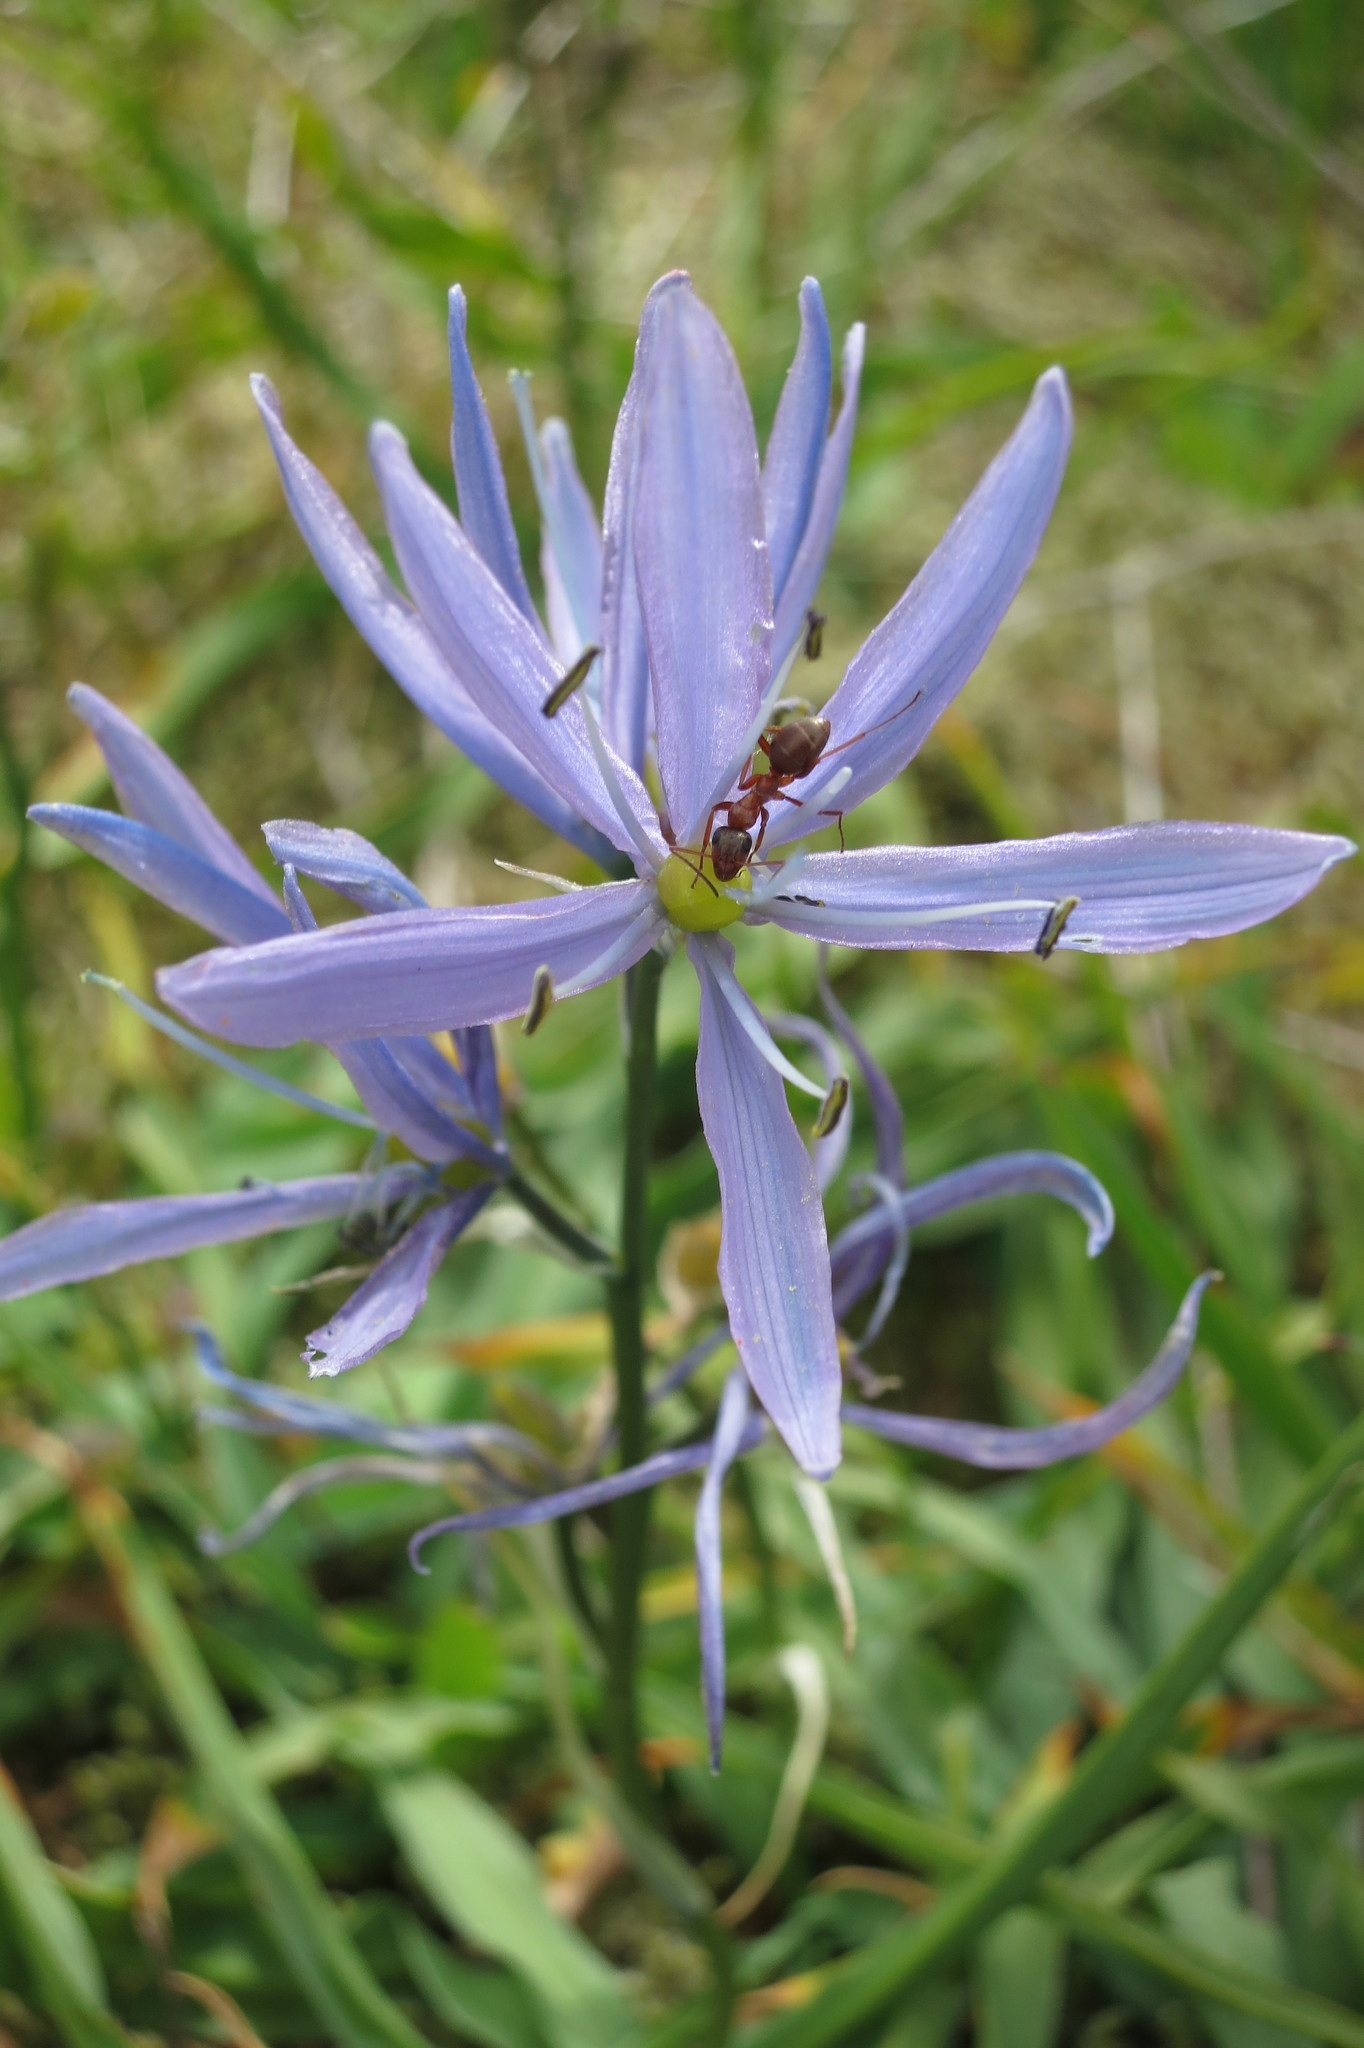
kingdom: Plantae
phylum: Tracheophyta
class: Liliopsida
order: Asparagales
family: Asparagaceae
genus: Camassia
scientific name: Camassia quamash
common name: Common camas
